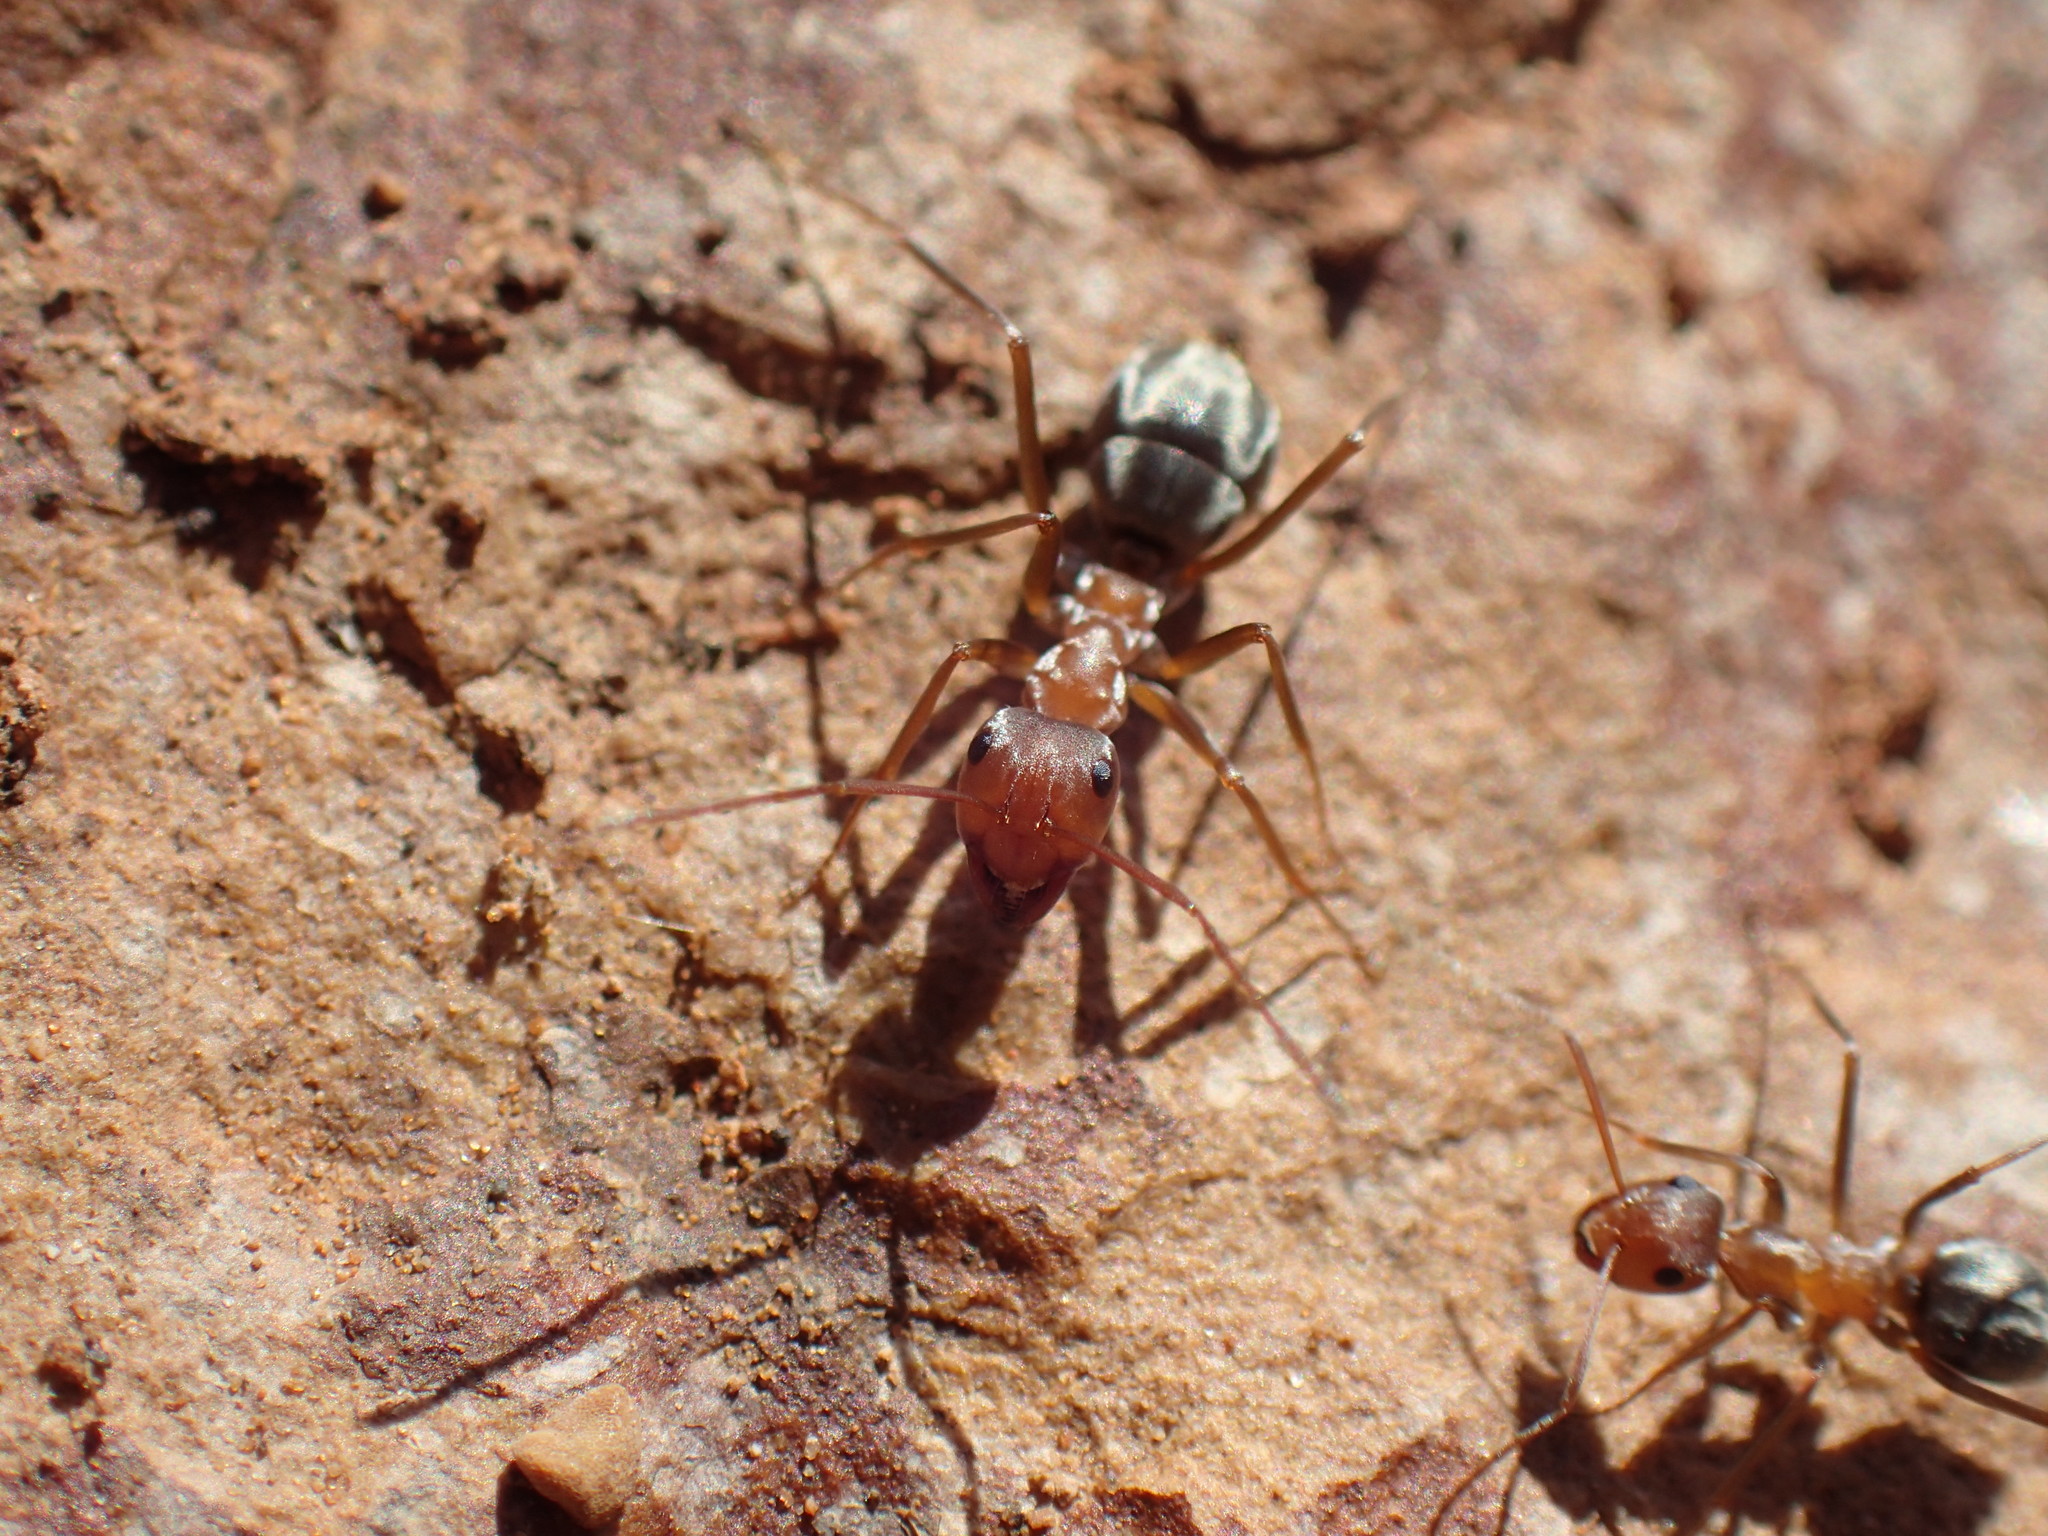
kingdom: Animalia
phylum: Arthropoda
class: Insecta
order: Hymenoptera
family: Formicidae
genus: Anoplolepis
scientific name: Anoplolepis custodiens
